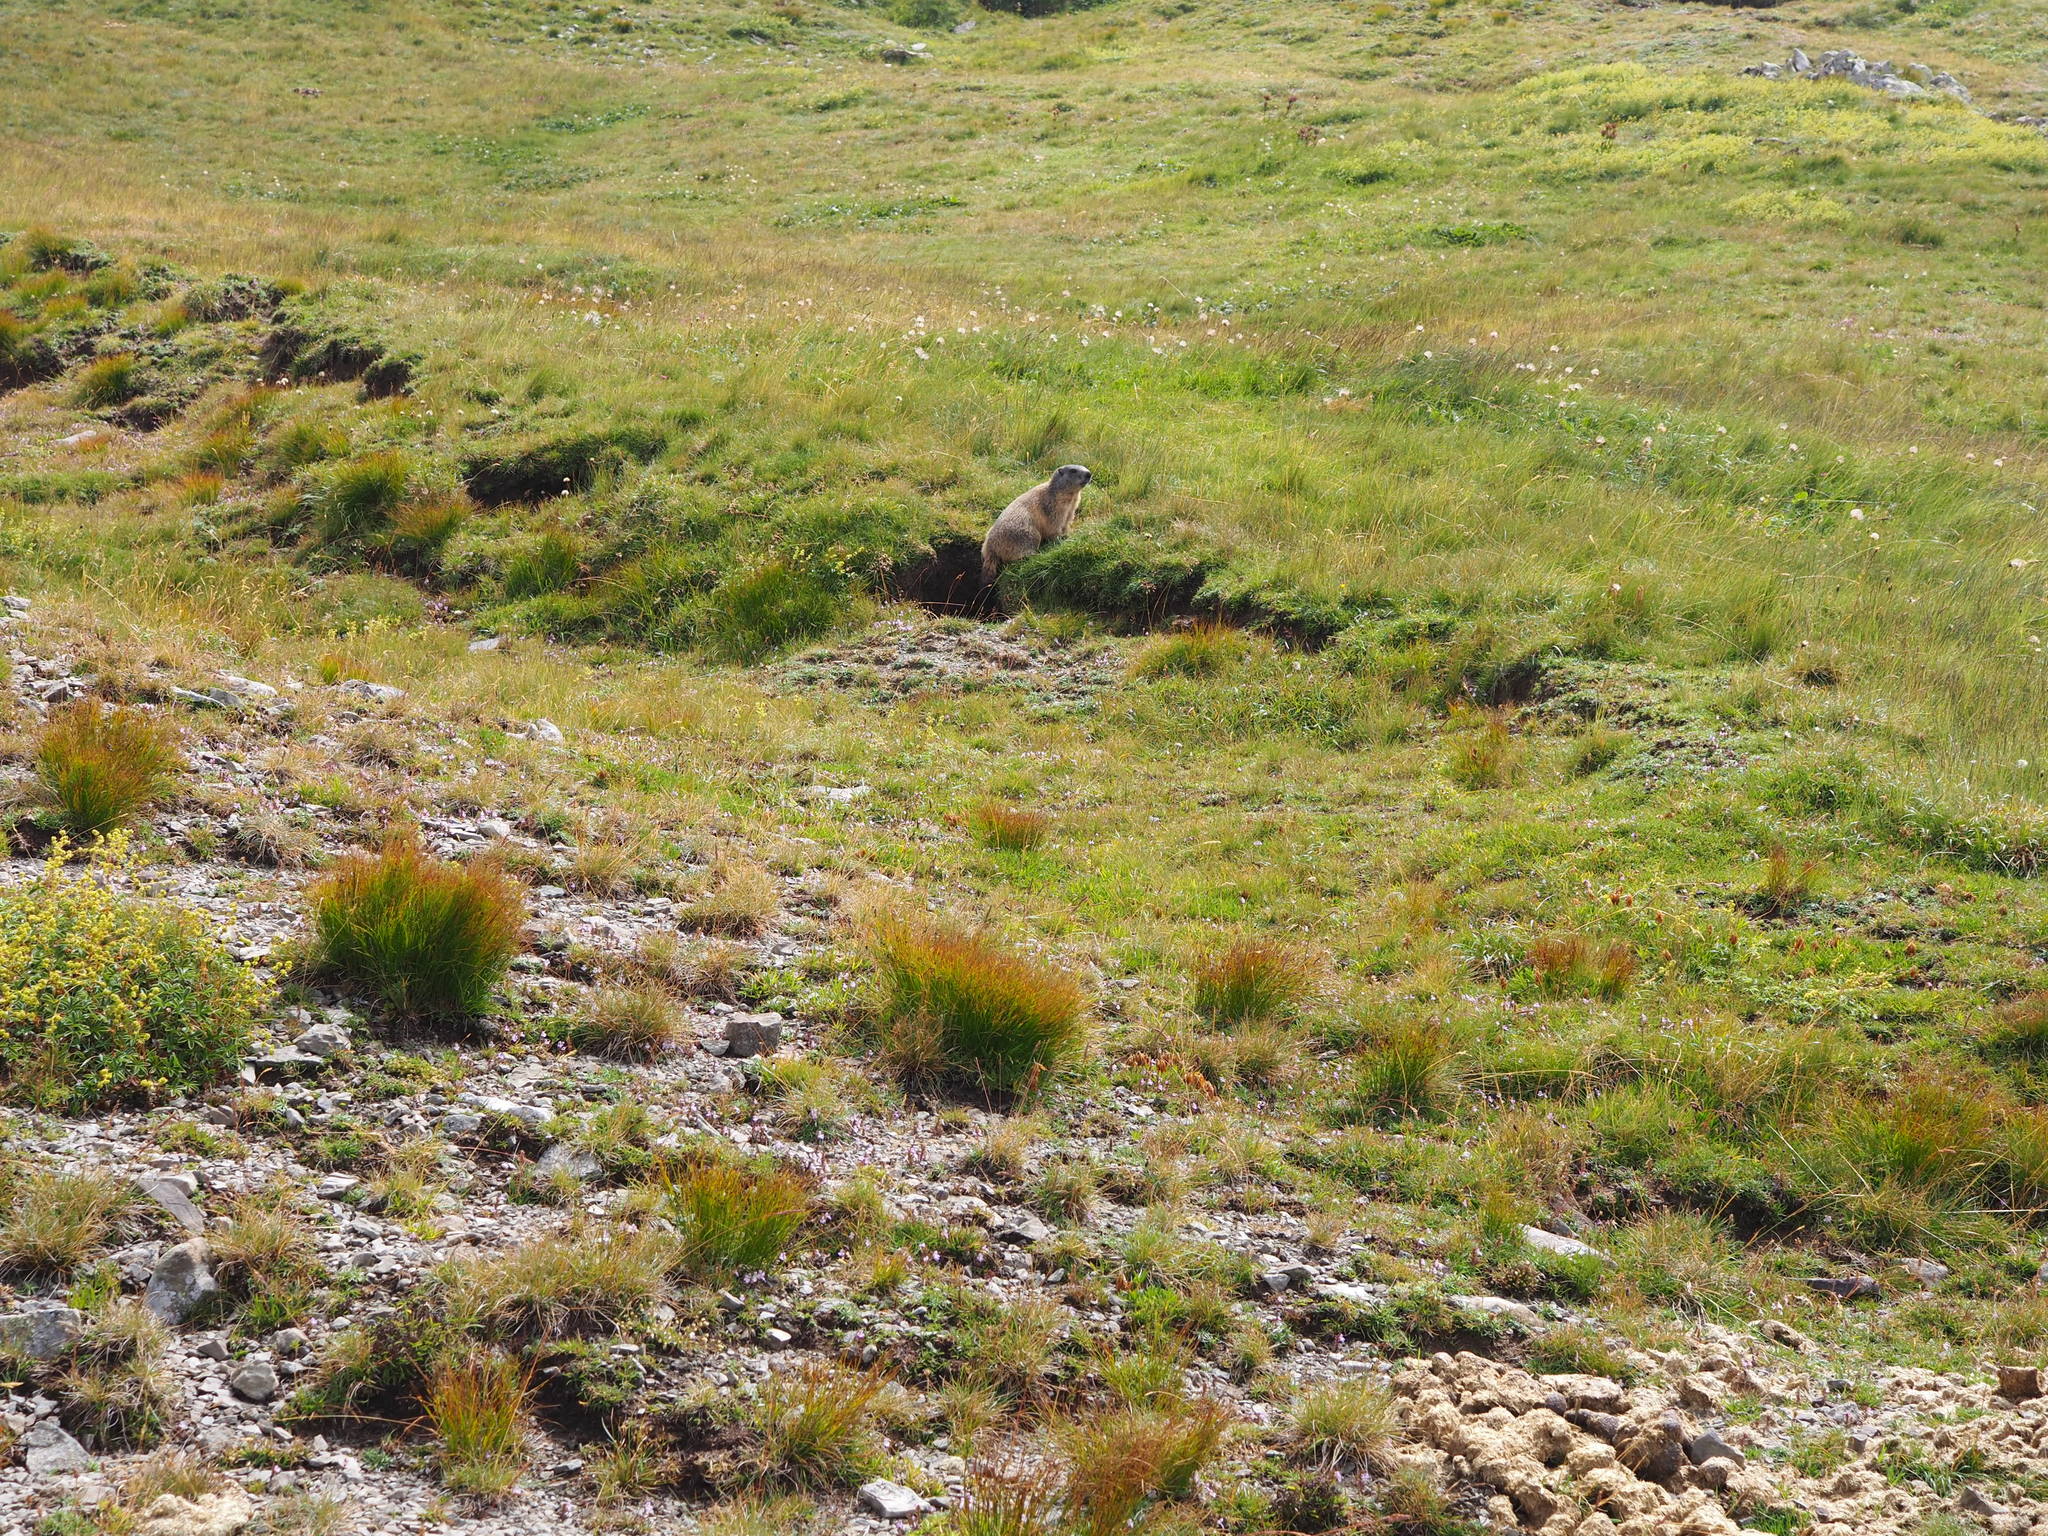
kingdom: Animalia
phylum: Chordata
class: Mammalia
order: Rodentia
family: Sciuridae
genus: Marmota
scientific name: Marmota marmota
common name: Alpine marmot
